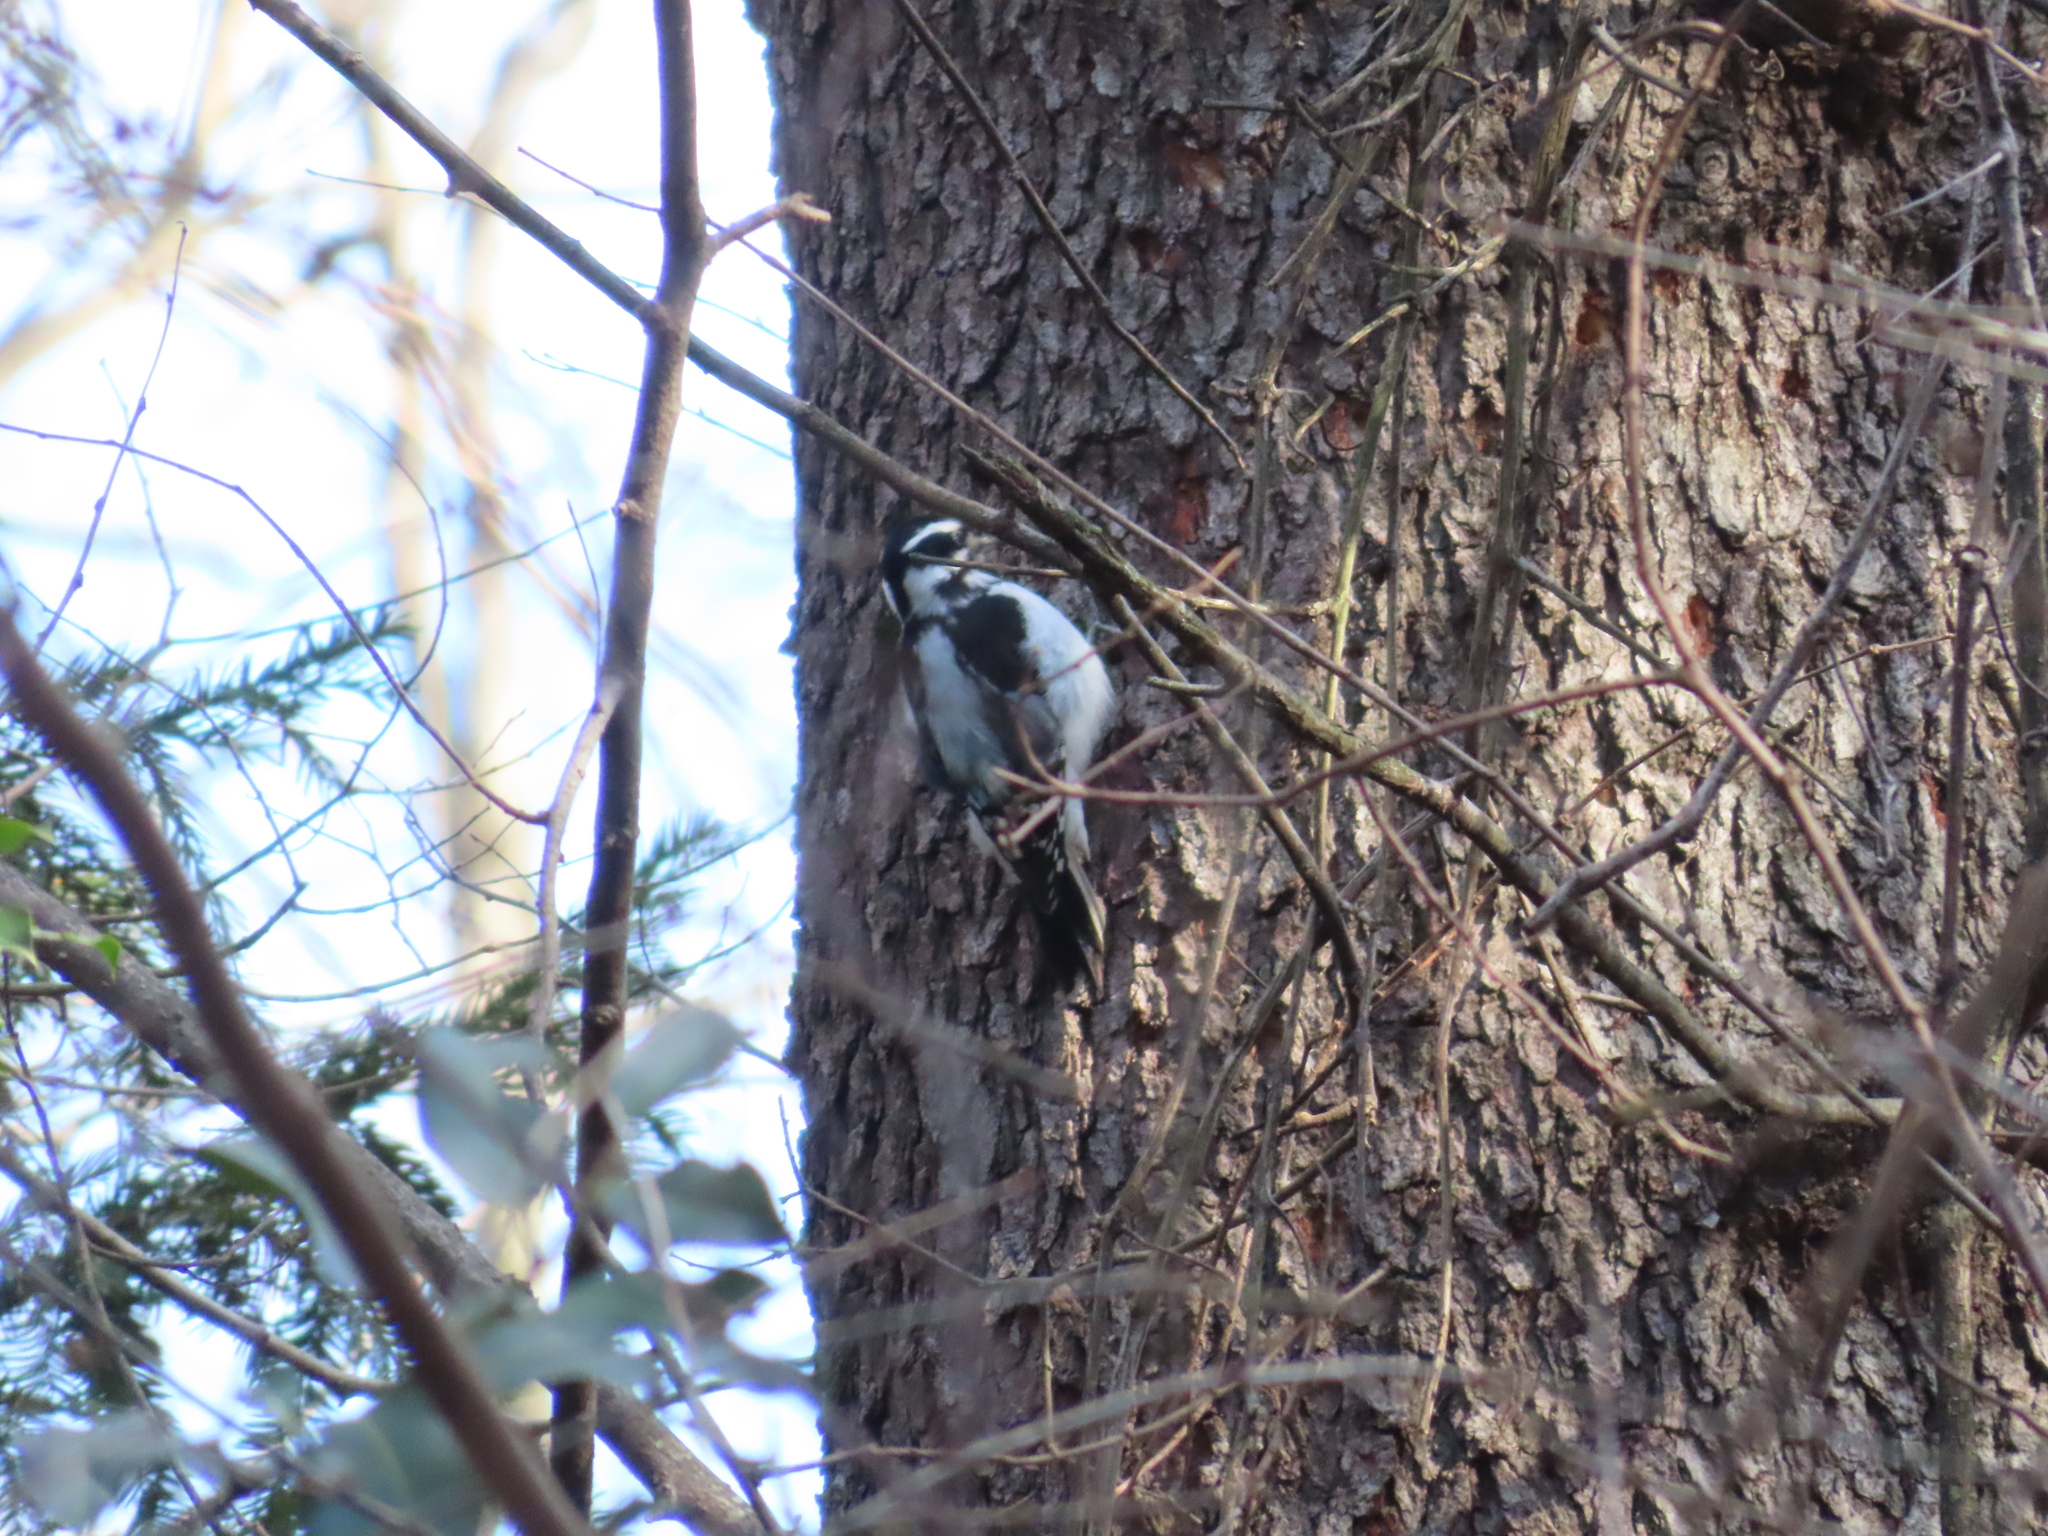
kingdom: Animalia
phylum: Chordata
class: Aves
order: Piciformes
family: Picidae
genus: Dryobates
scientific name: Dryobates pubescens
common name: Downy woodpecker
